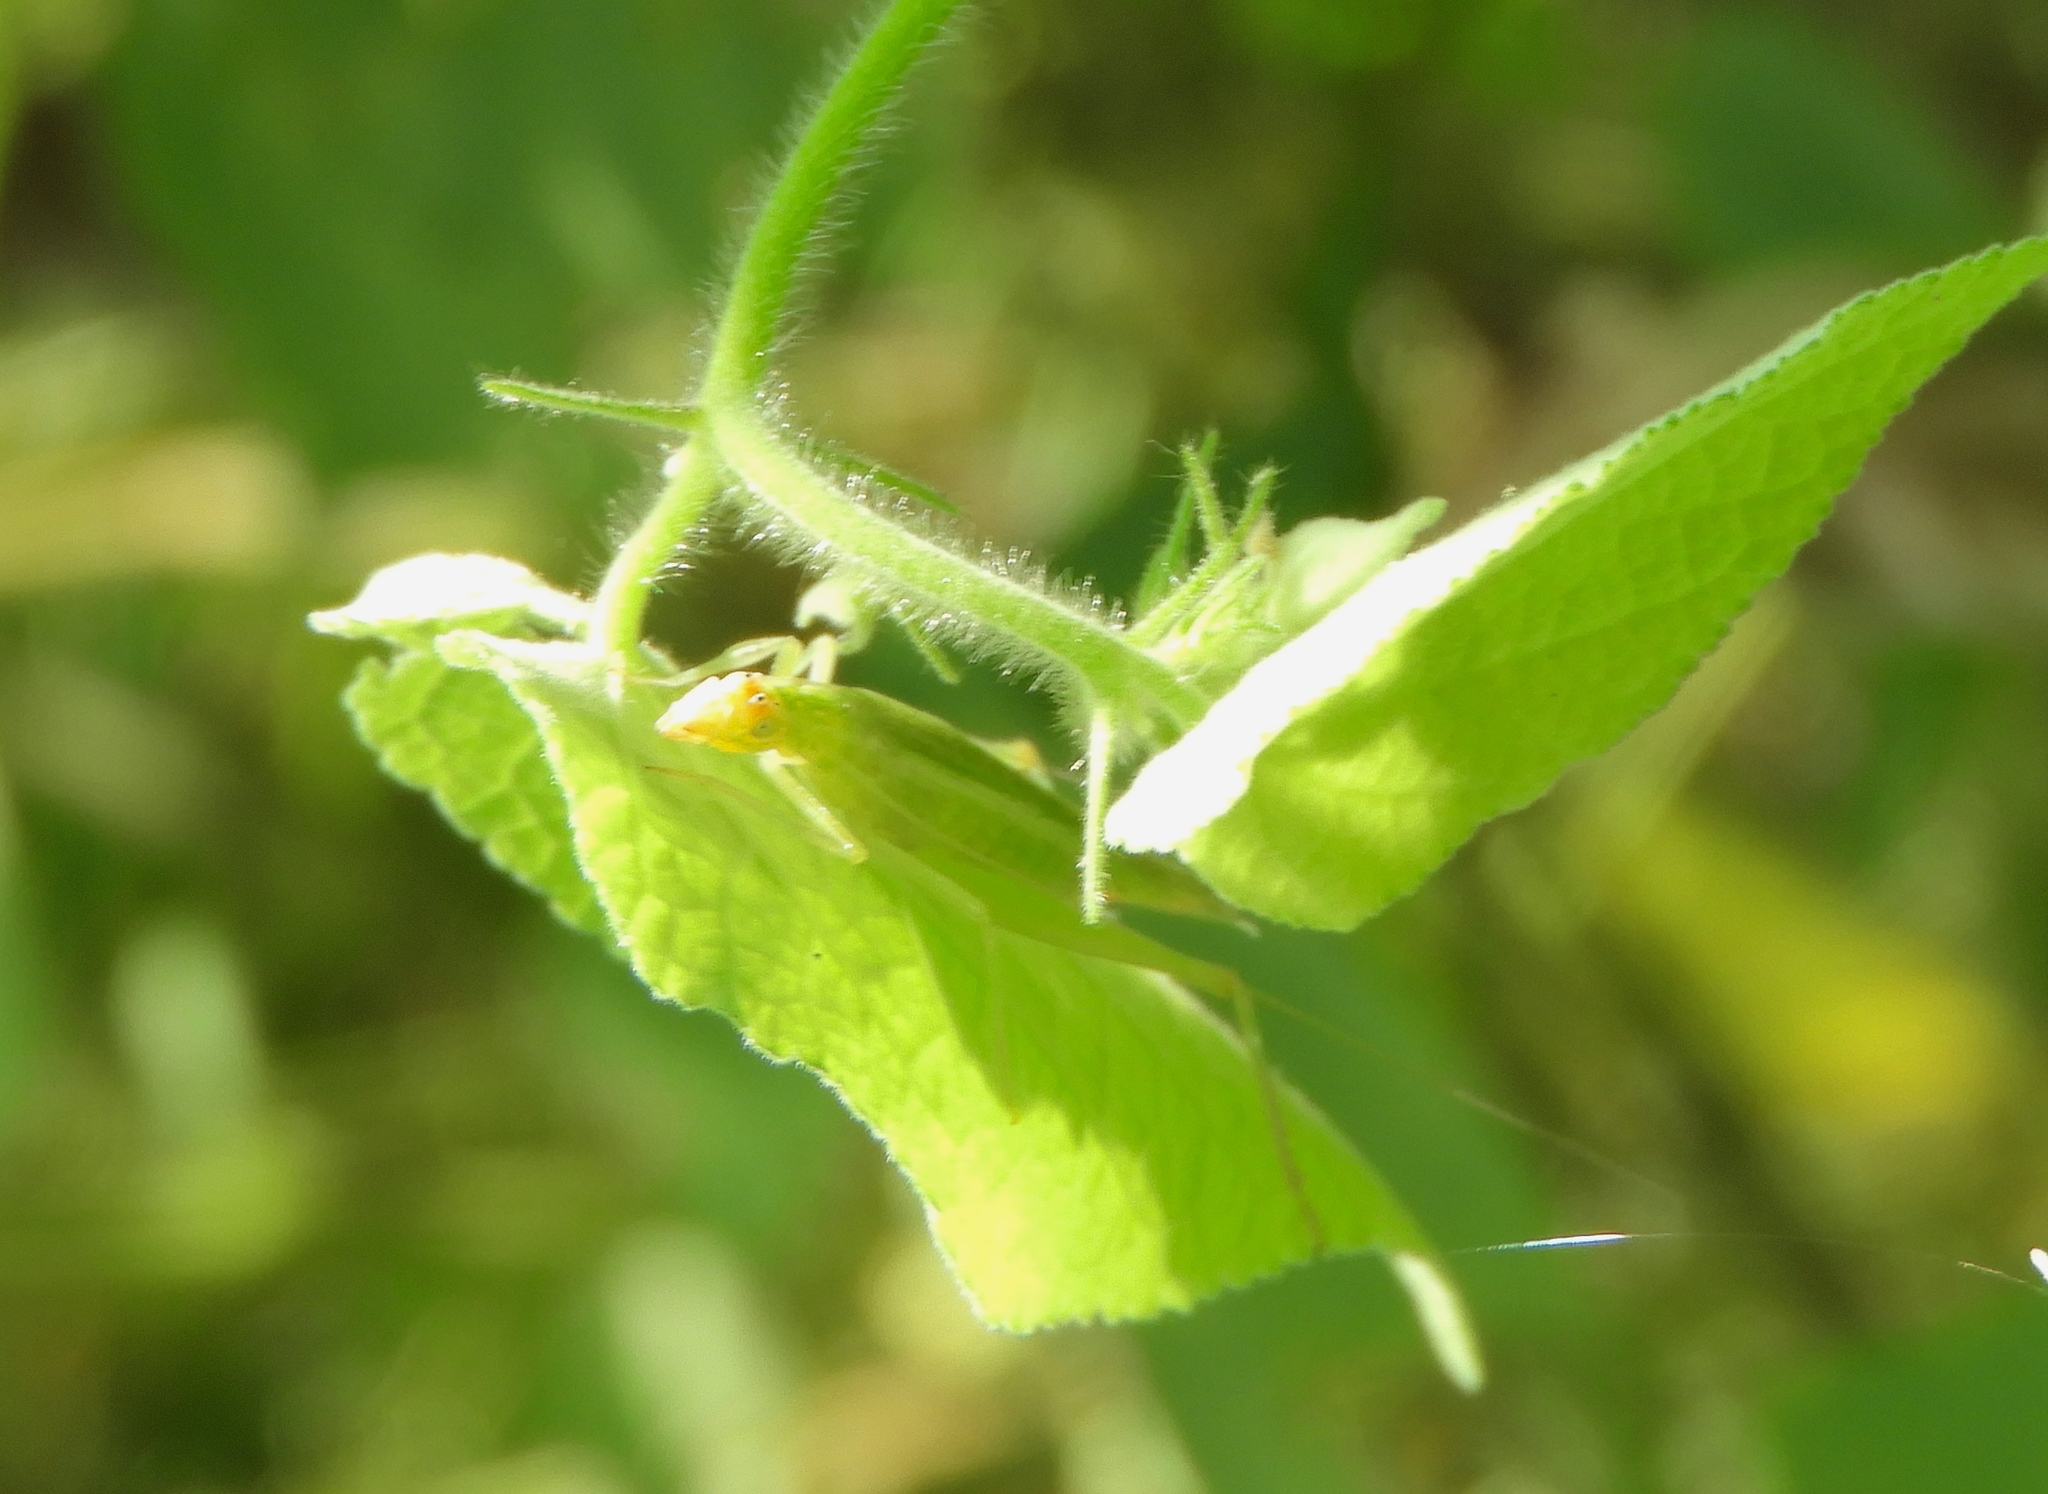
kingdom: Animalia
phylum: Arthropoda
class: Insecta
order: Orthoptera
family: Gryllidae
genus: Oecanthus
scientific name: Oecanthus comma
